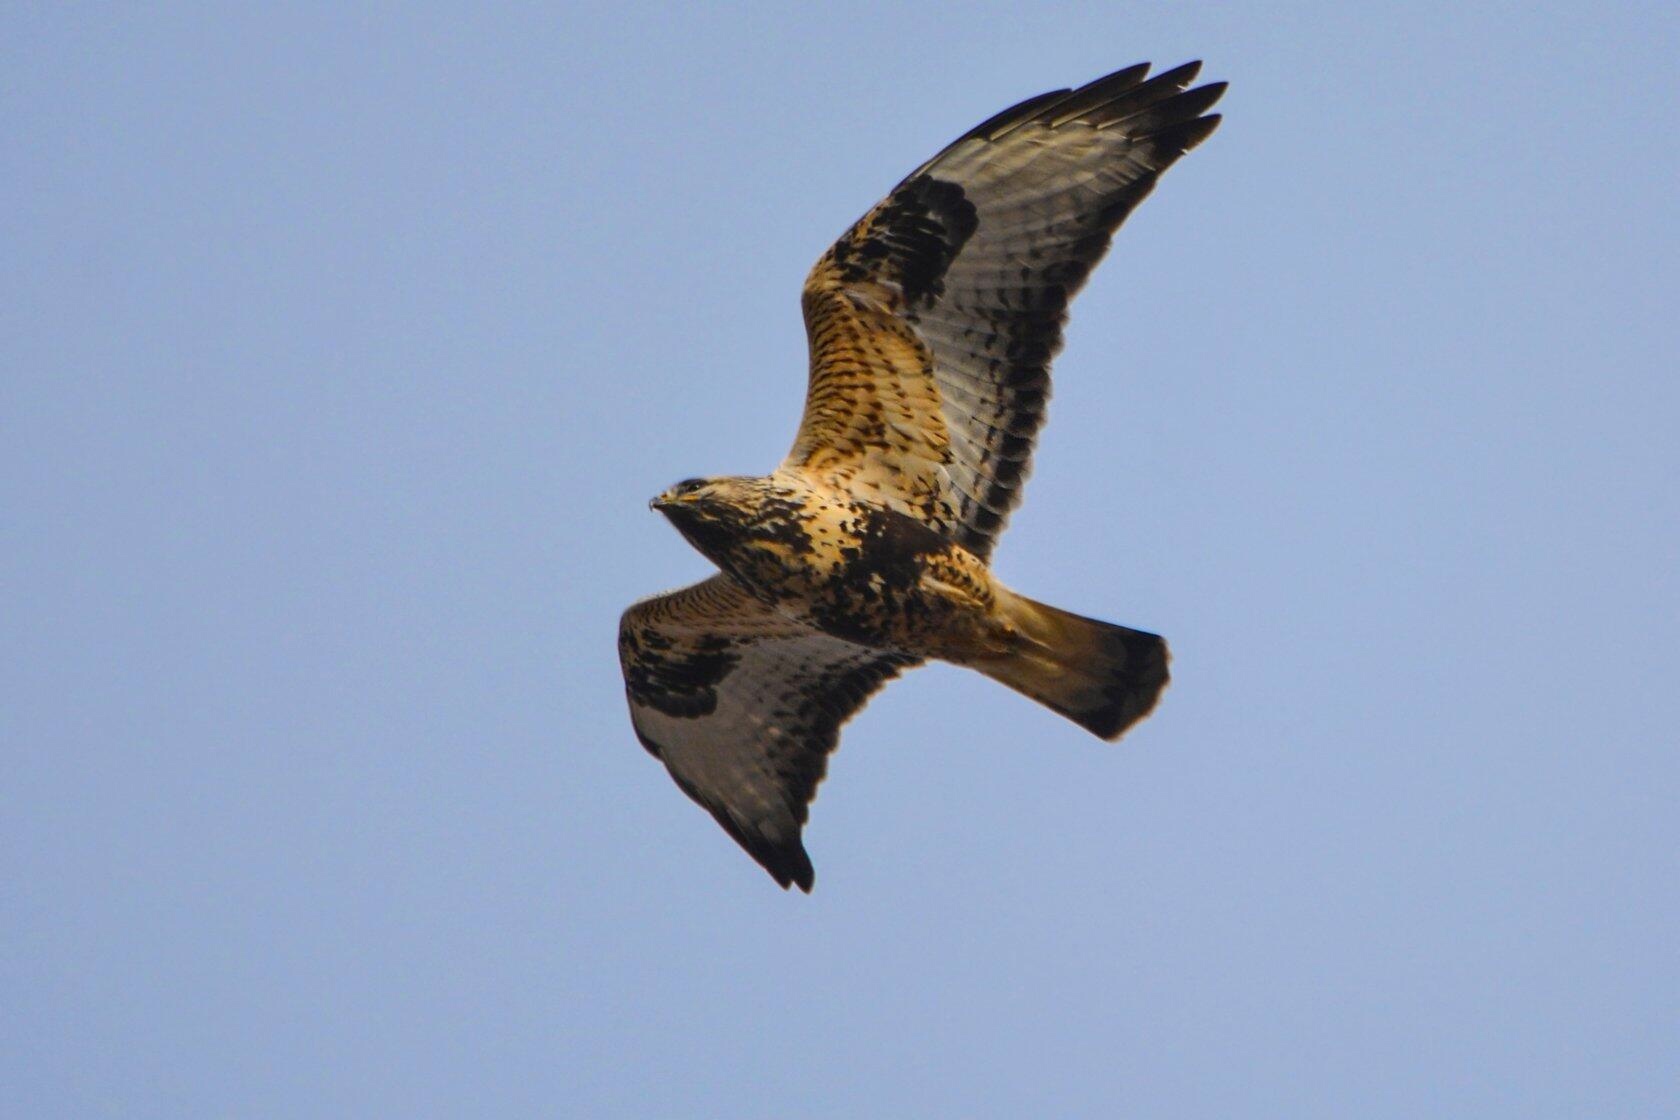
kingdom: Animalia
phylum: Chordata
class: Aves
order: Accipitriformes
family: Accipitridae
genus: Buteo
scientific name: Buteo lagopus
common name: Rough-legged buzzard
